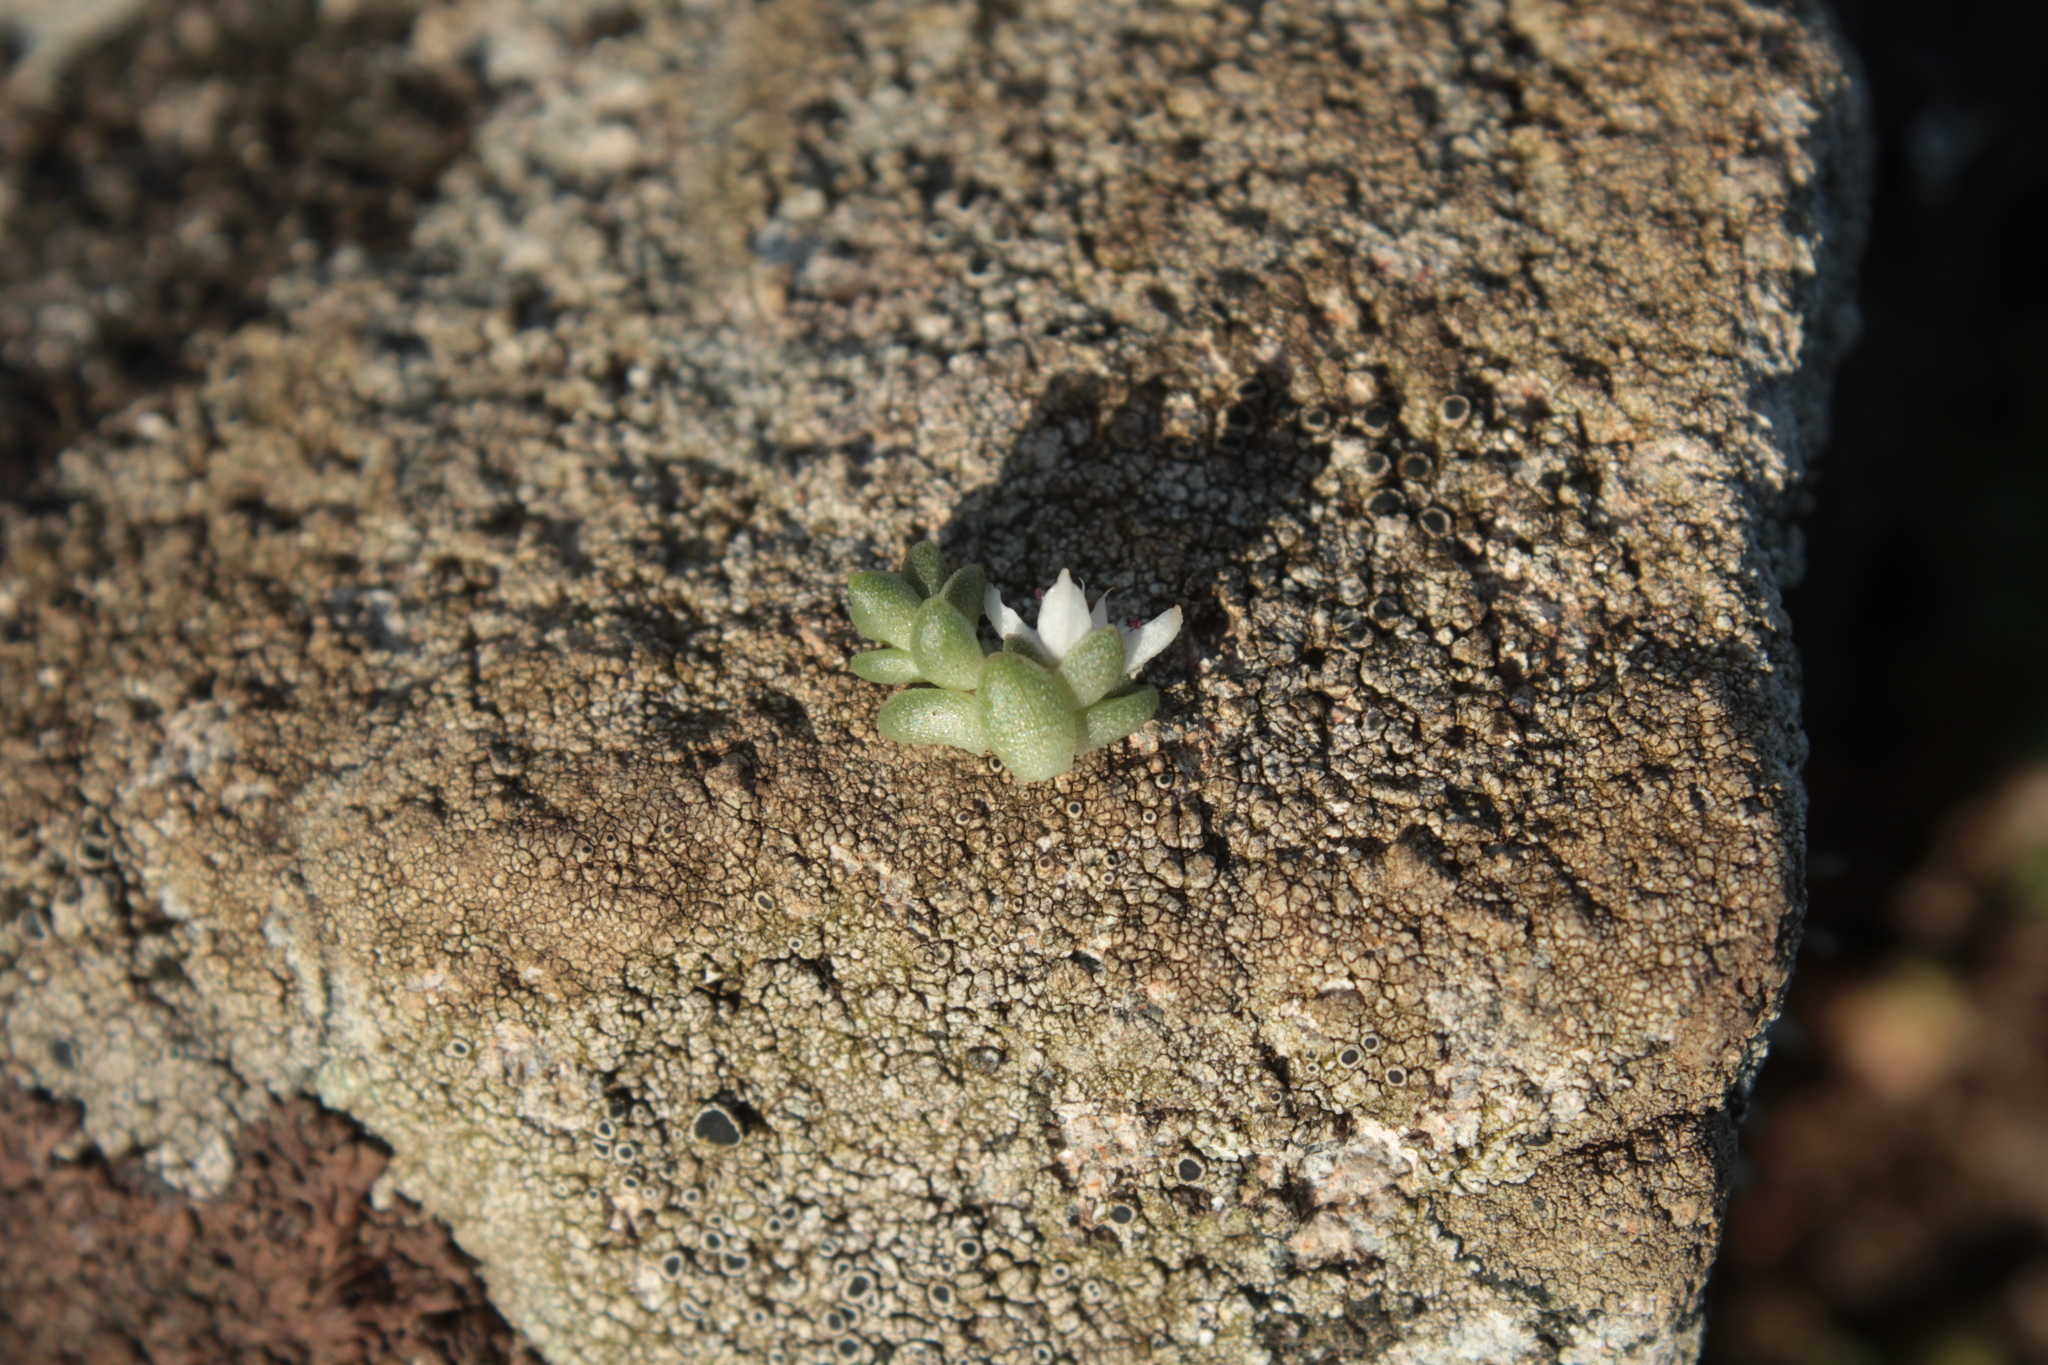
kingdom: Plantae
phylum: Tracheophyta
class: Magnoliopsida
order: Saxifragales
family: Crassulaceae
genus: Sedum
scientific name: Sedum anglicum
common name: English stonecrop
